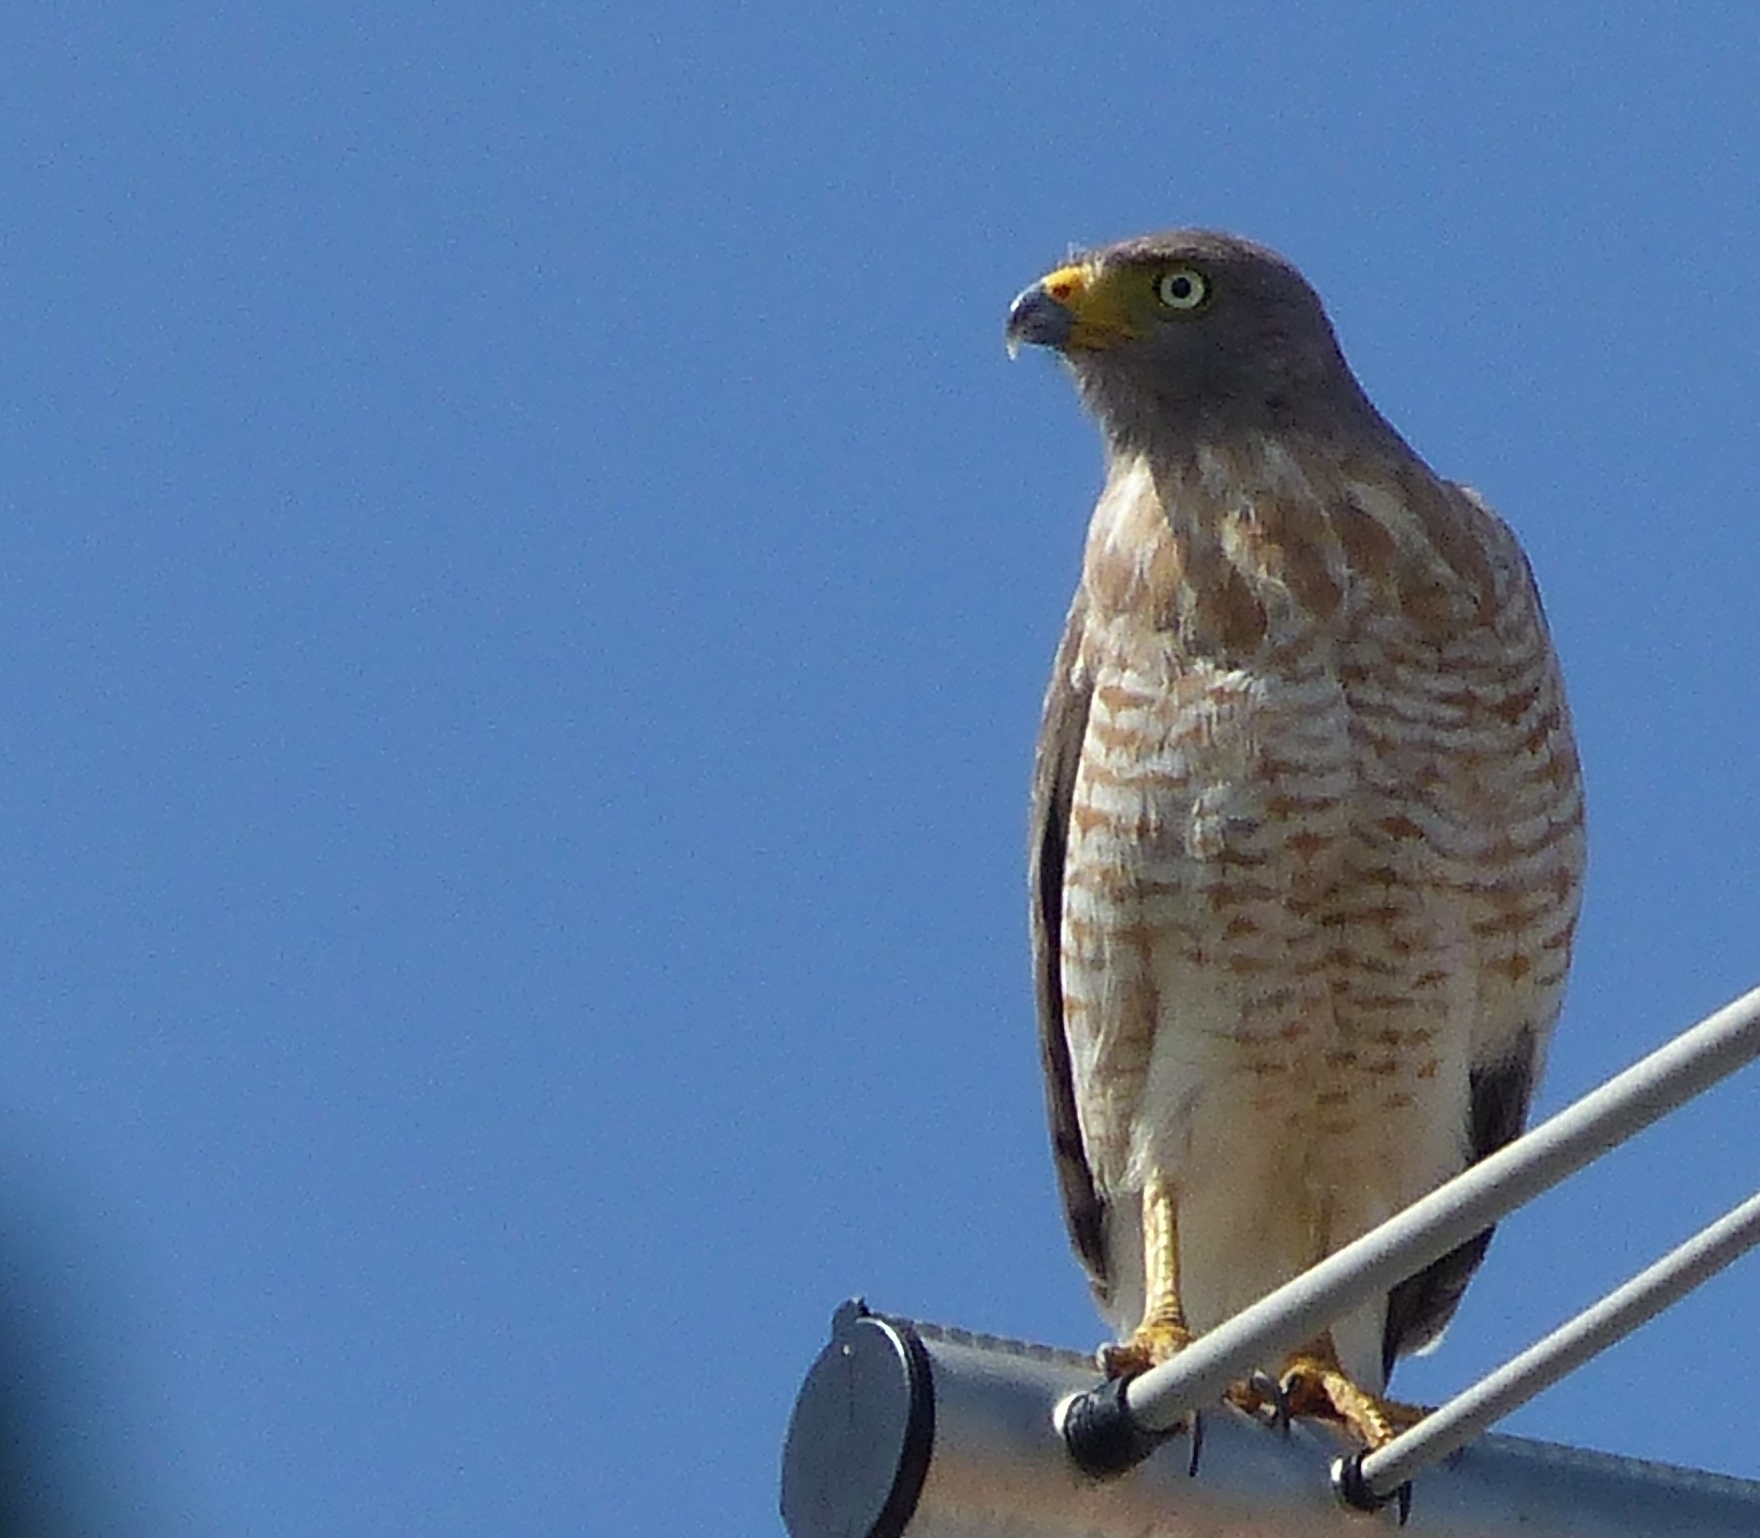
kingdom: Animalia
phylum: Chordata
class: Aves
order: Accipitriformes
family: Accipitridae
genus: Rupornis
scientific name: Rupornis magnirostris
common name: Roadside hawk
